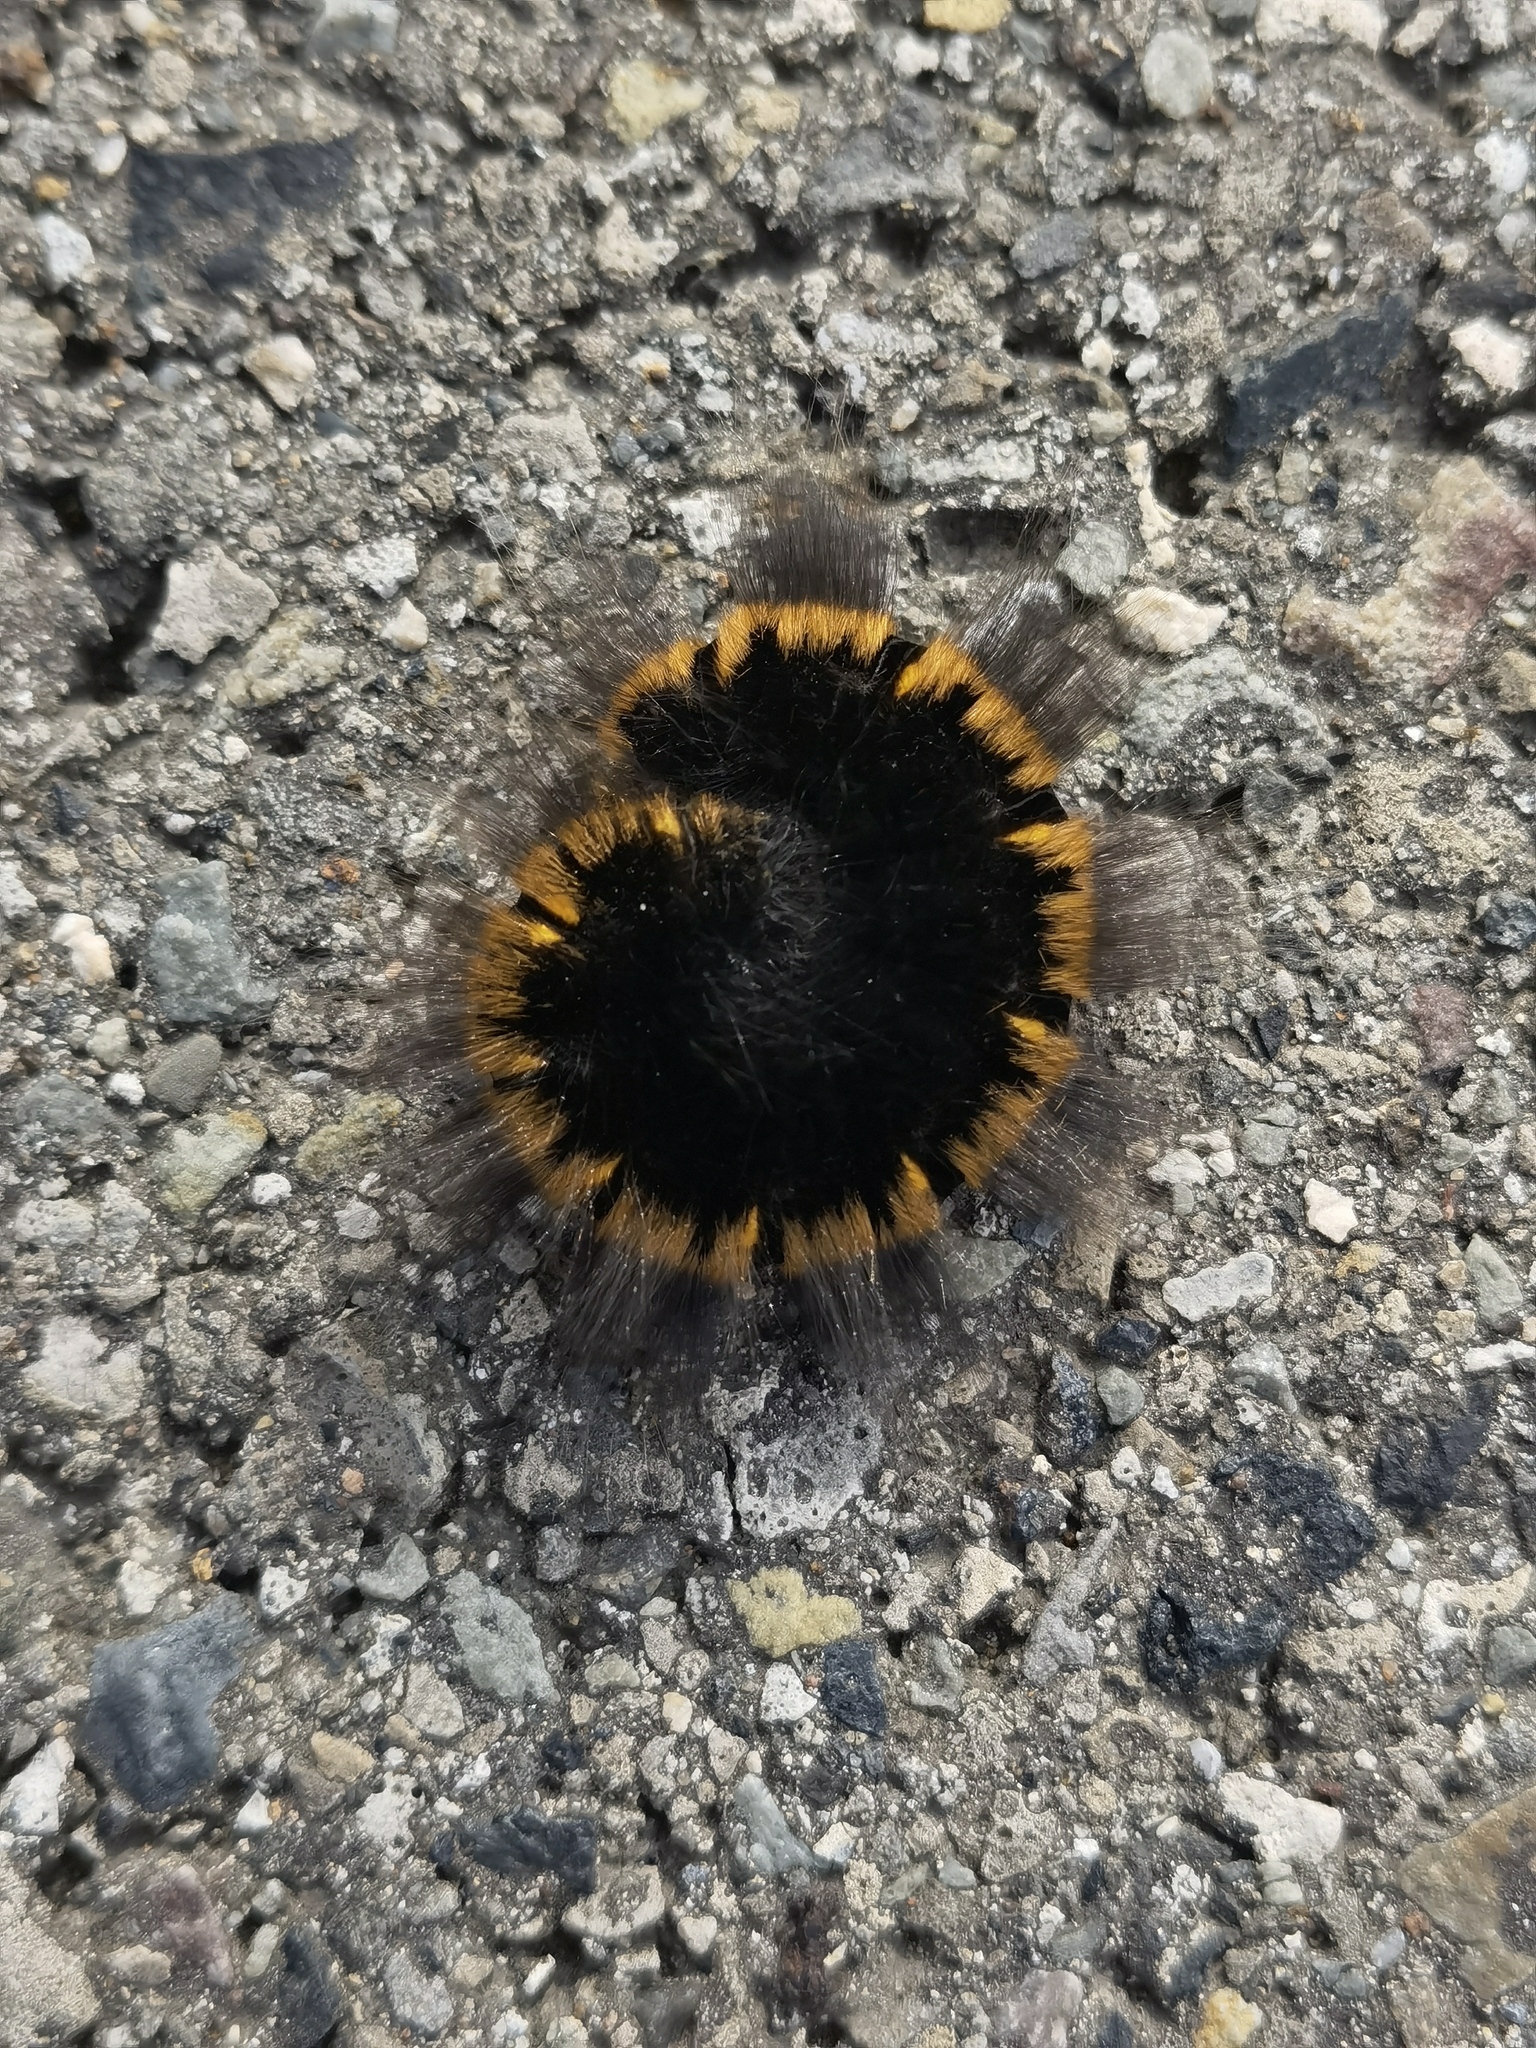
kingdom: Animalia
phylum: Arthropoda
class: Insecta
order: Lepidoptera
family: Notodontidae
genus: Phalera
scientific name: Phalera bucephala
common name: Buff-tip
